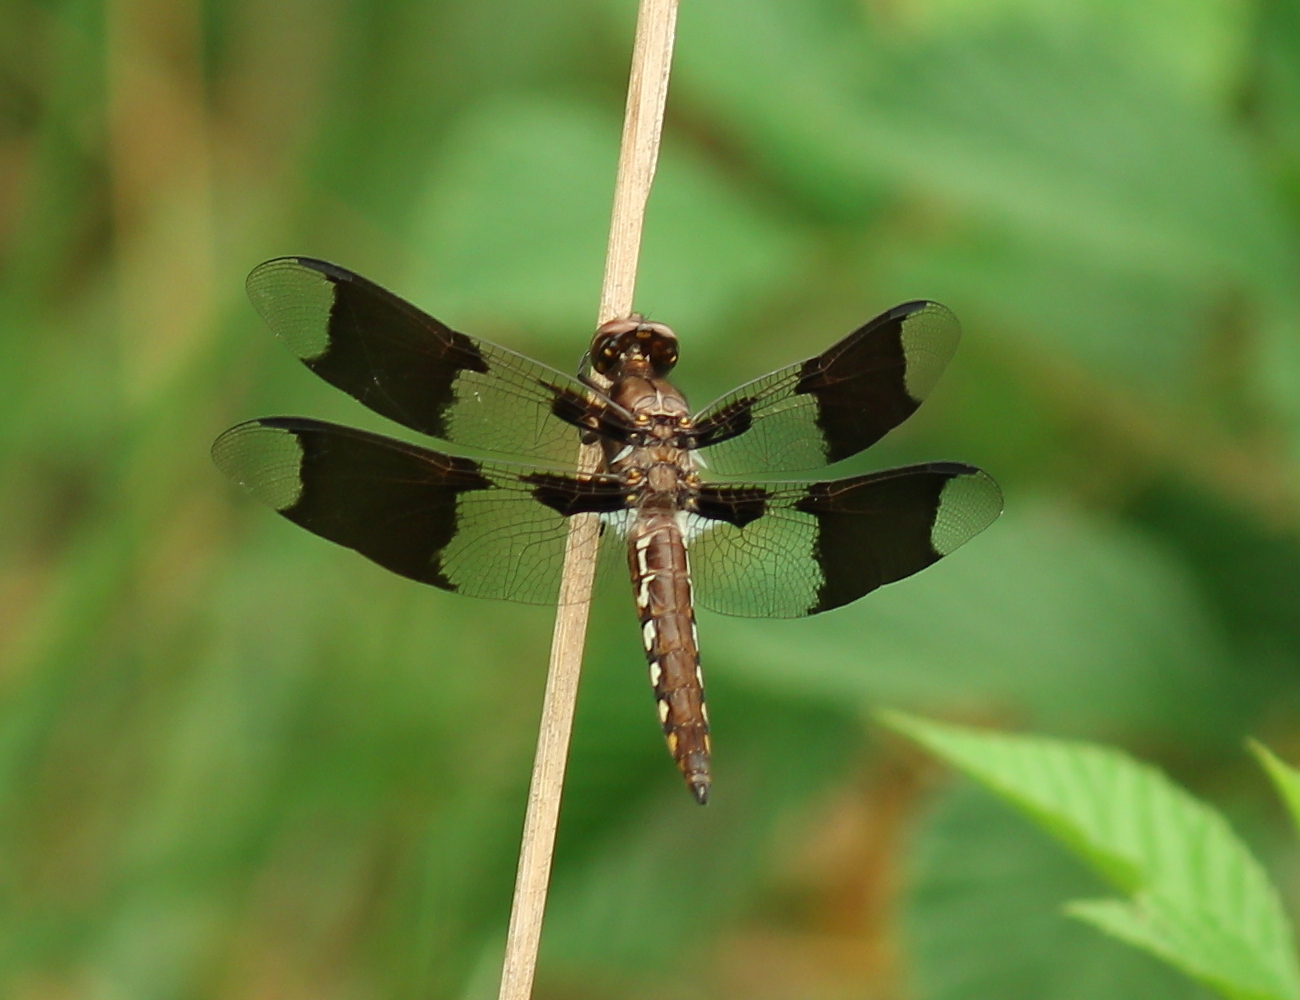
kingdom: Animalia
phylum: Arthropoda
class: Insecta
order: Odonata
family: Libellulidae
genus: Plathemis
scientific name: Plathemis lydia
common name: Common whitetail
